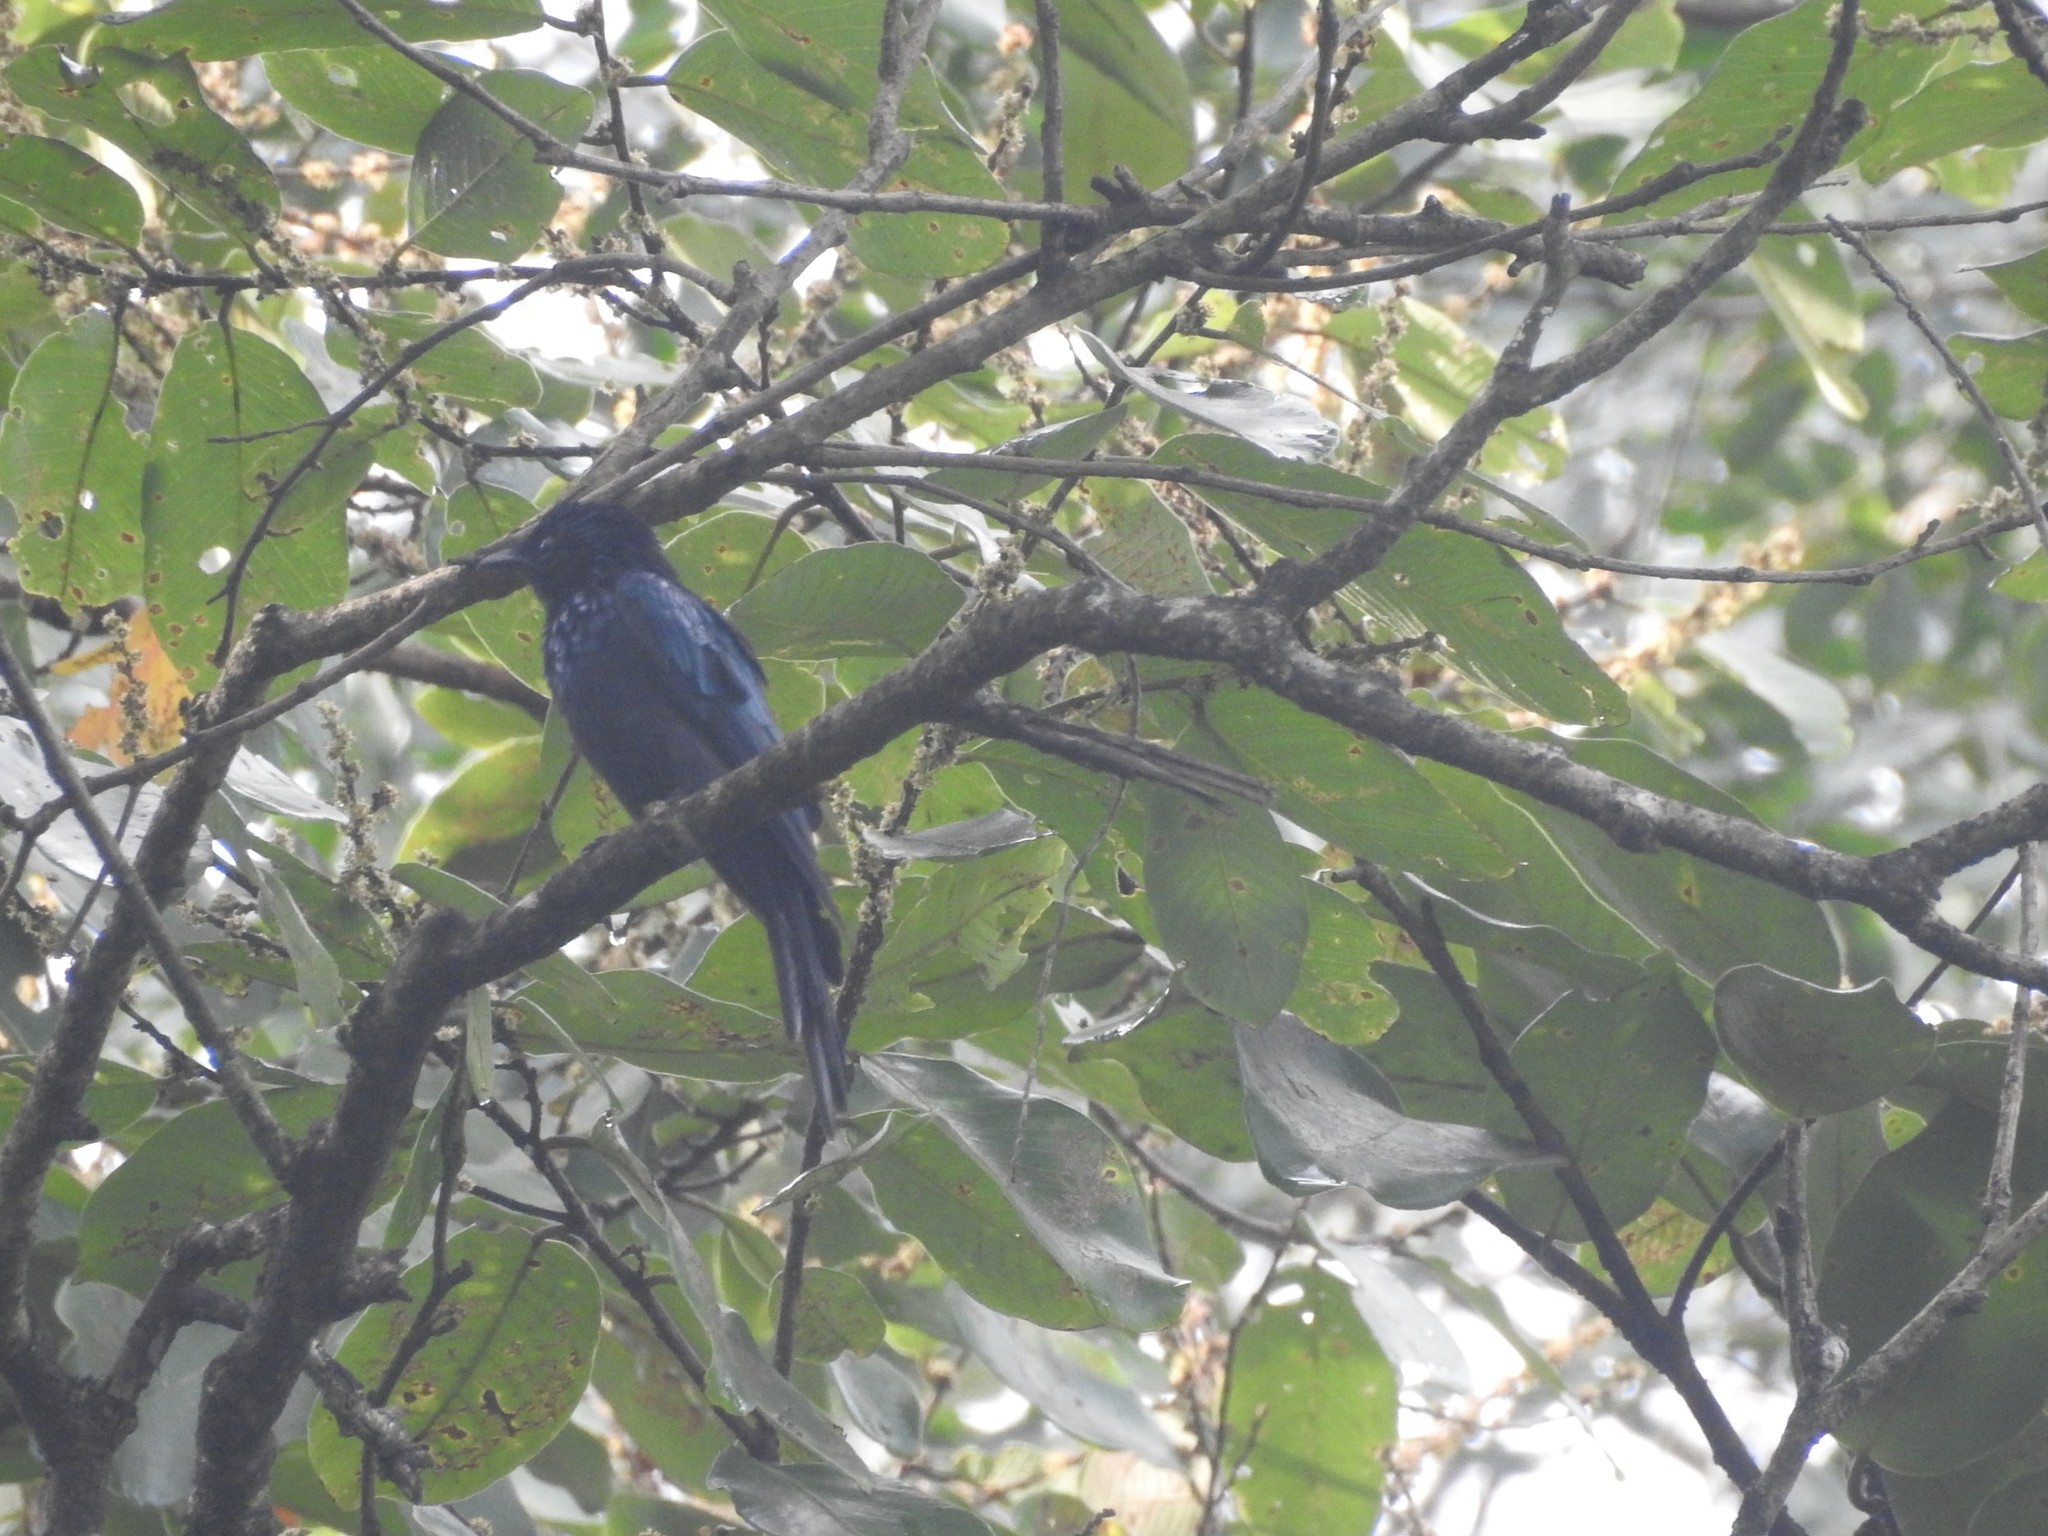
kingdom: Animalia
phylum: Chordata
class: Aves
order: Passeriformes
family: Dicruridae
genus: Dicrurus
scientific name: Dicrurus paradiseus
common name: Greater racket-tailed drongo
